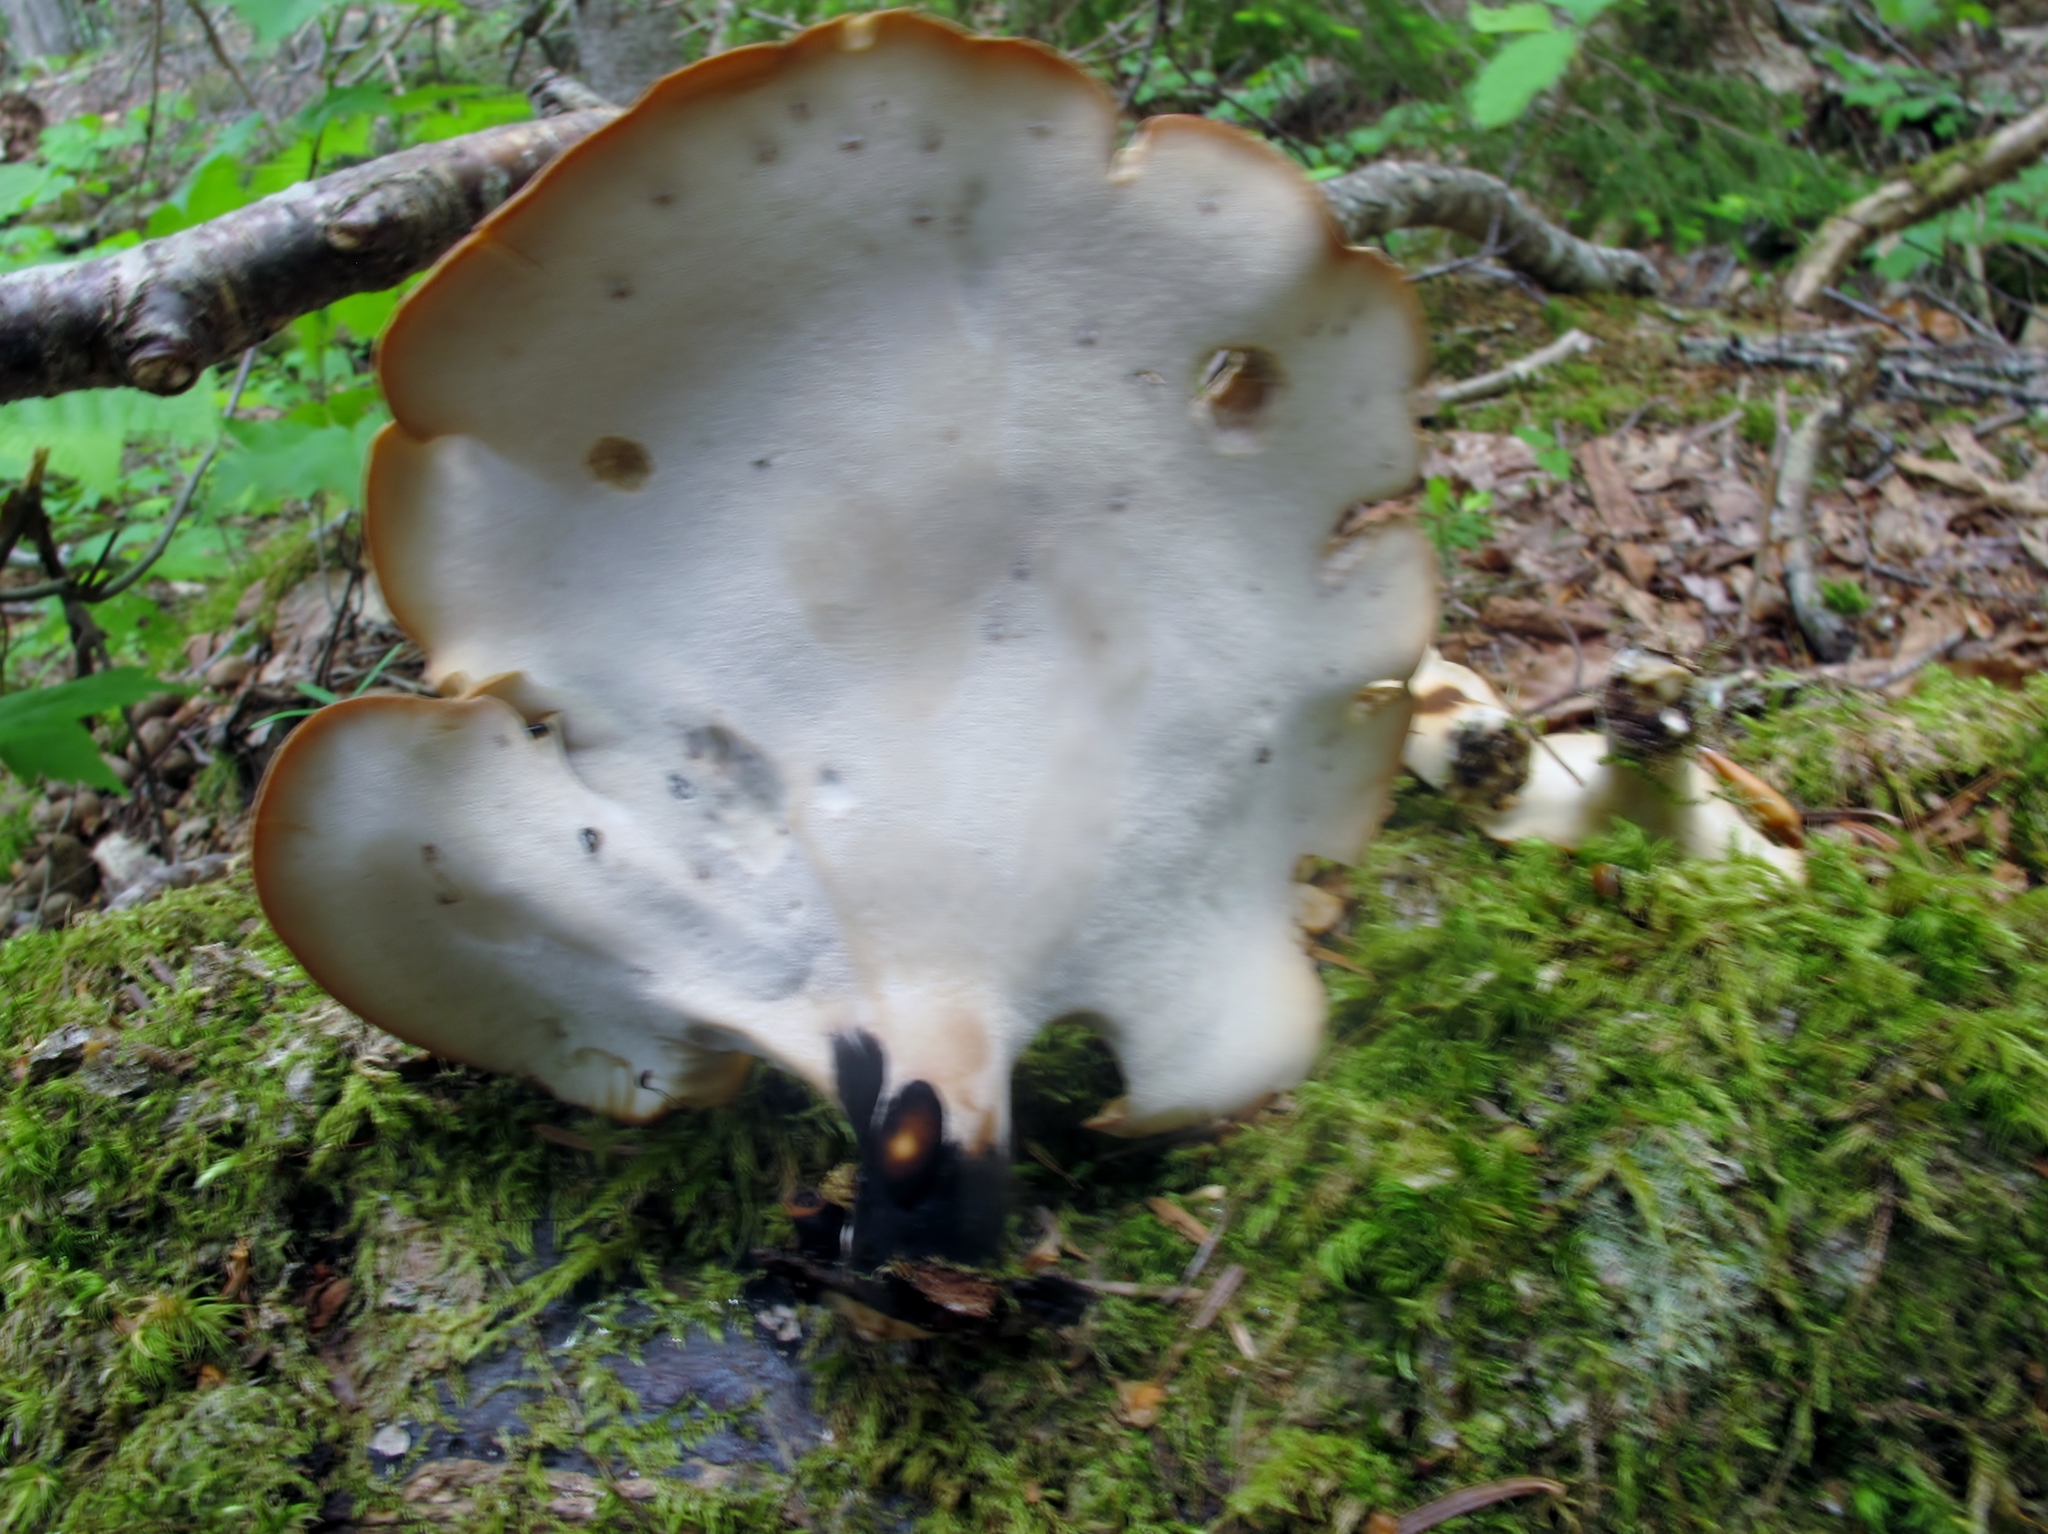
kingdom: Fungi
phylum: Basidiomycota
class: Agaricomycetes
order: Polyporales
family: Polyporaceae
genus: Cerioporus
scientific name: Cerioporus leptocephalus
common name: Blackfoot polypore
